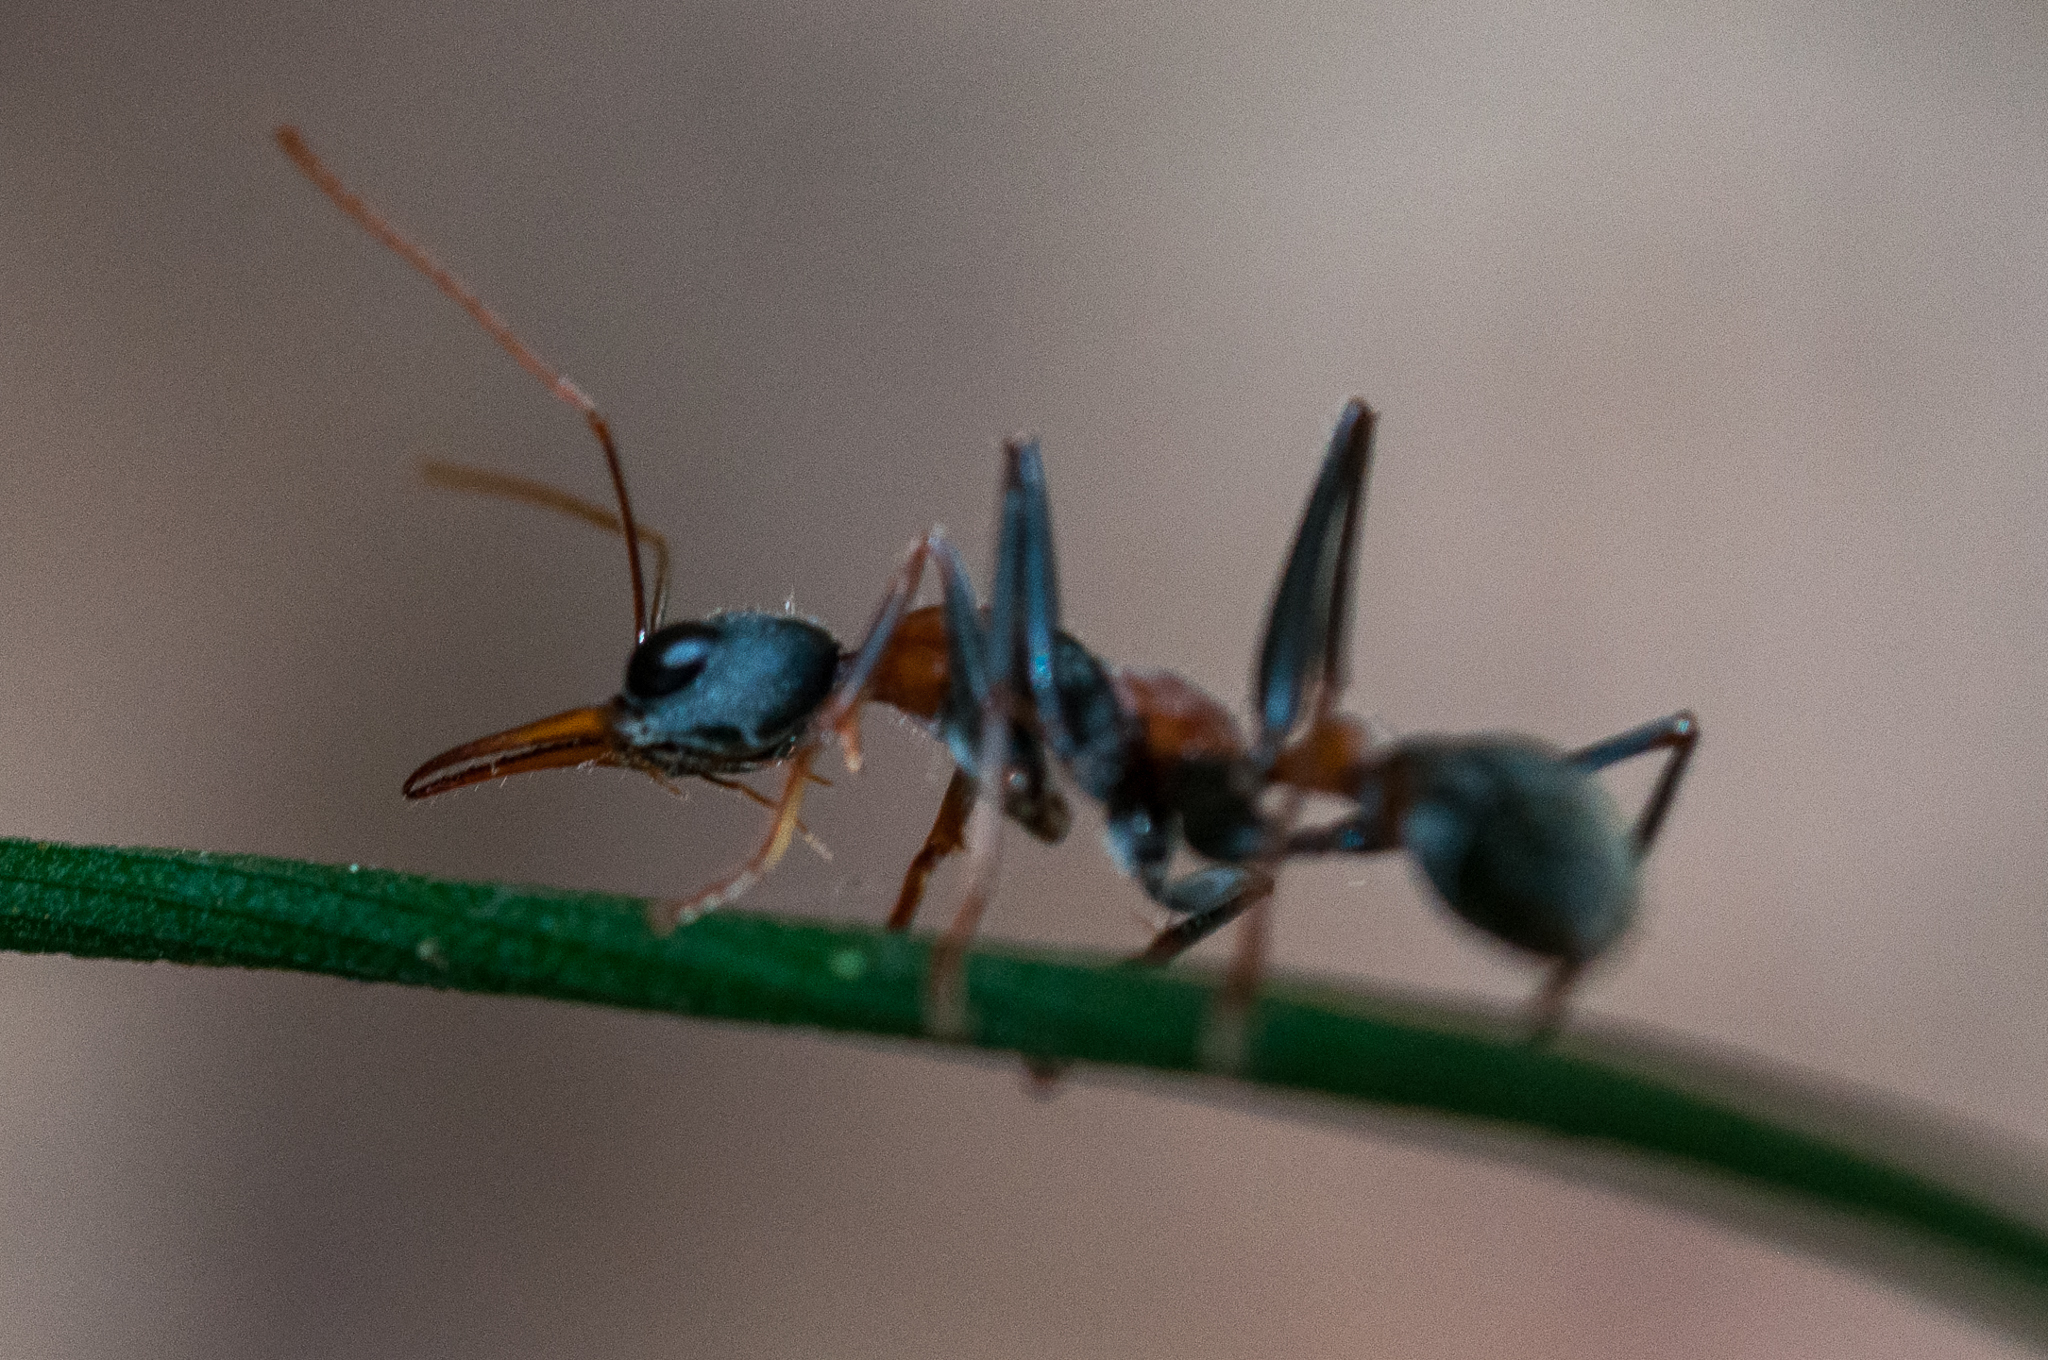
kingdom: Animalia
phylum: Arthropoda
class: Insecta
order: Hymenoptera
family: Formicidae
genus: Myrmecia
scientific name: Myrmecia nigrocincta
